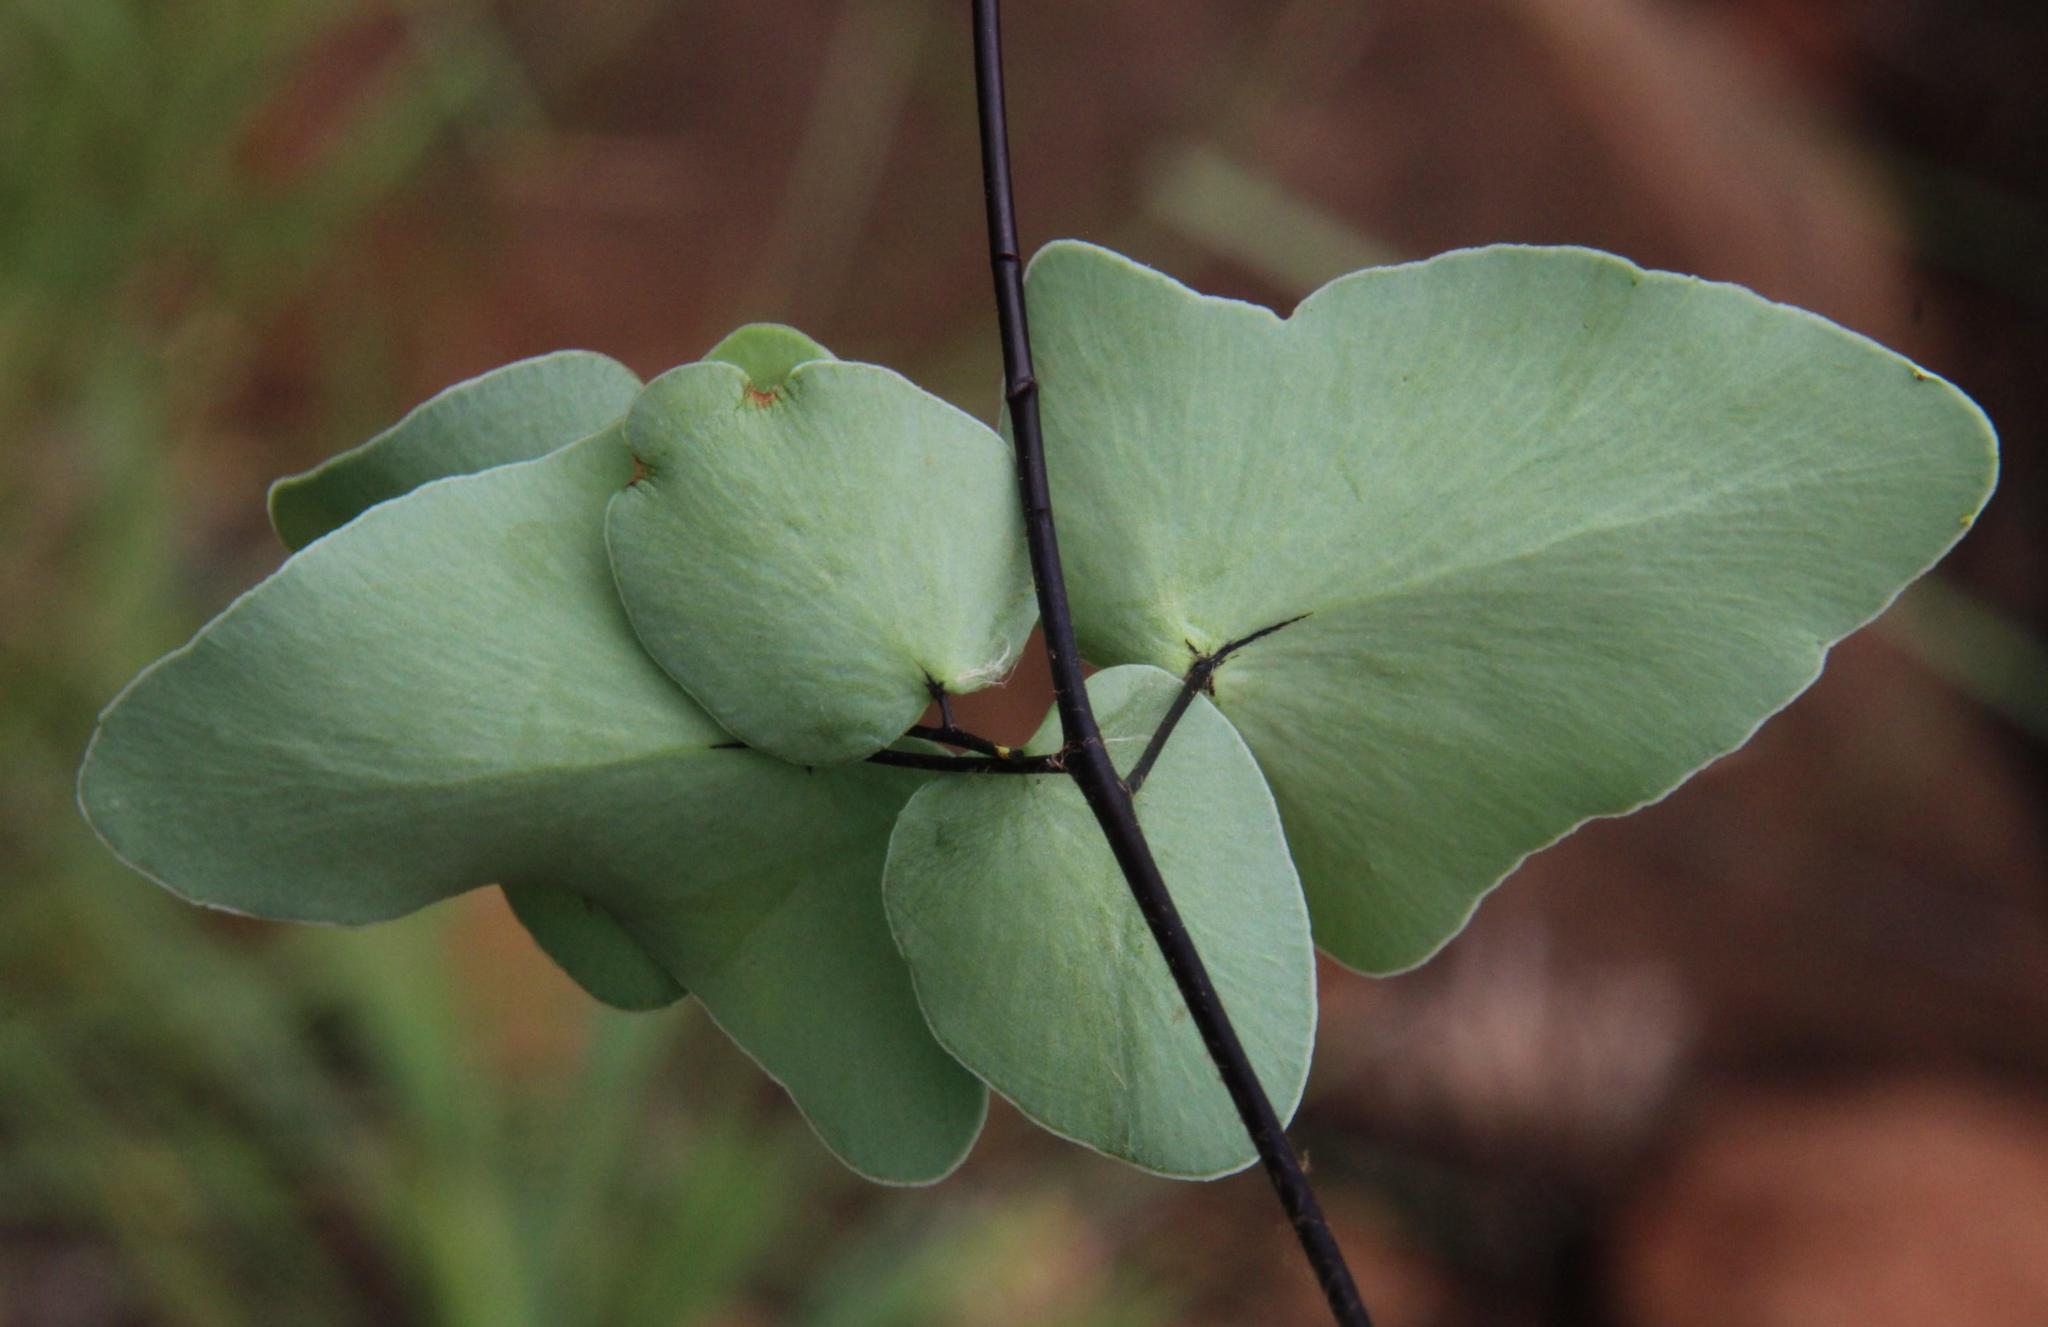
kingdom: Plantae
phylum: Tracheophyta
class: Polypodiopsida
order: Polypodiales
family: Pteridaceae
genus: Pellaea
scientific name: Pellaea calomelanos
